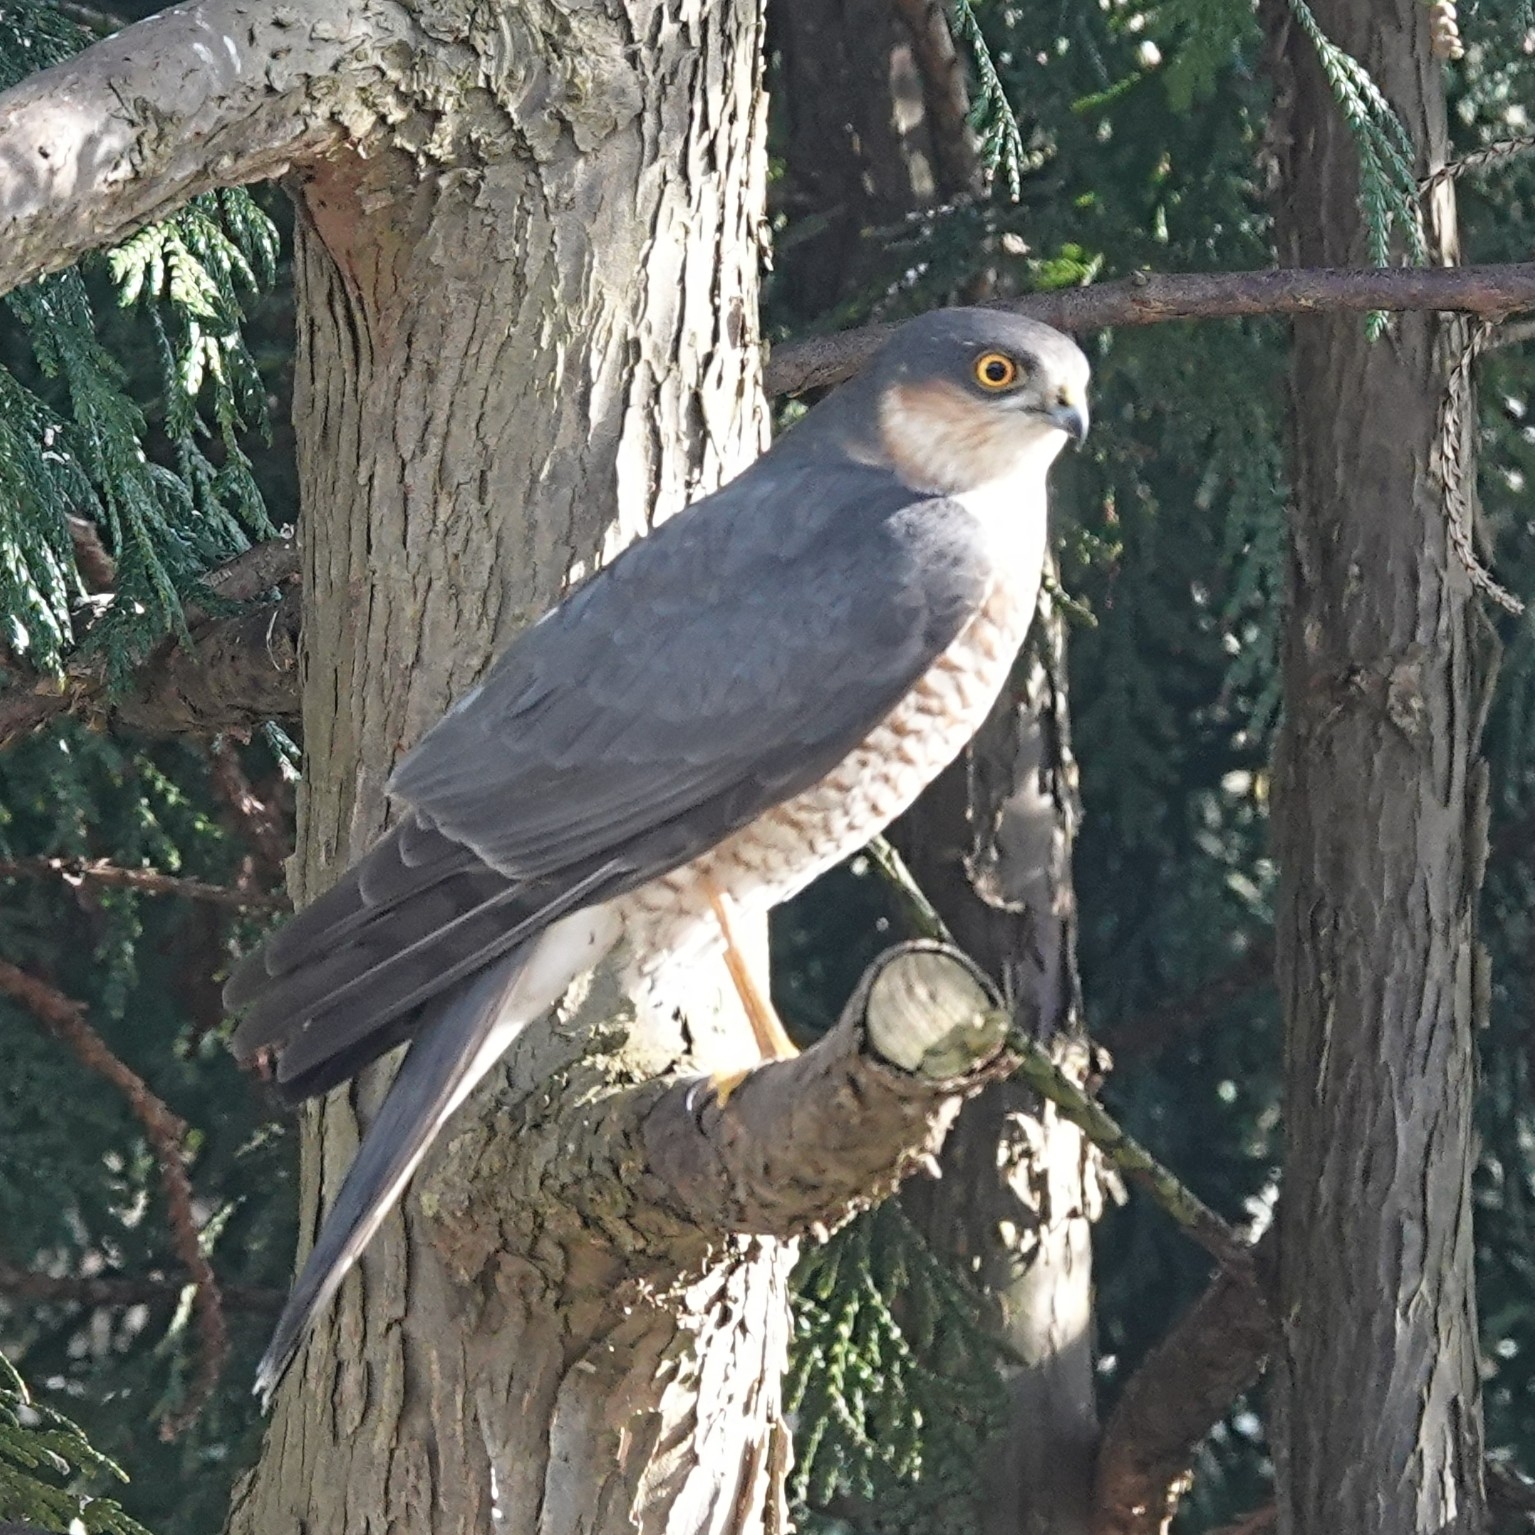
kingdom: Animalia
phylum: Chordata
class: Aves
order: Accipitriformes
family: Accipitridae
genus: Accipiter
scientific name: Accipiter nisus
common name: Eurasian sparrowhawk
